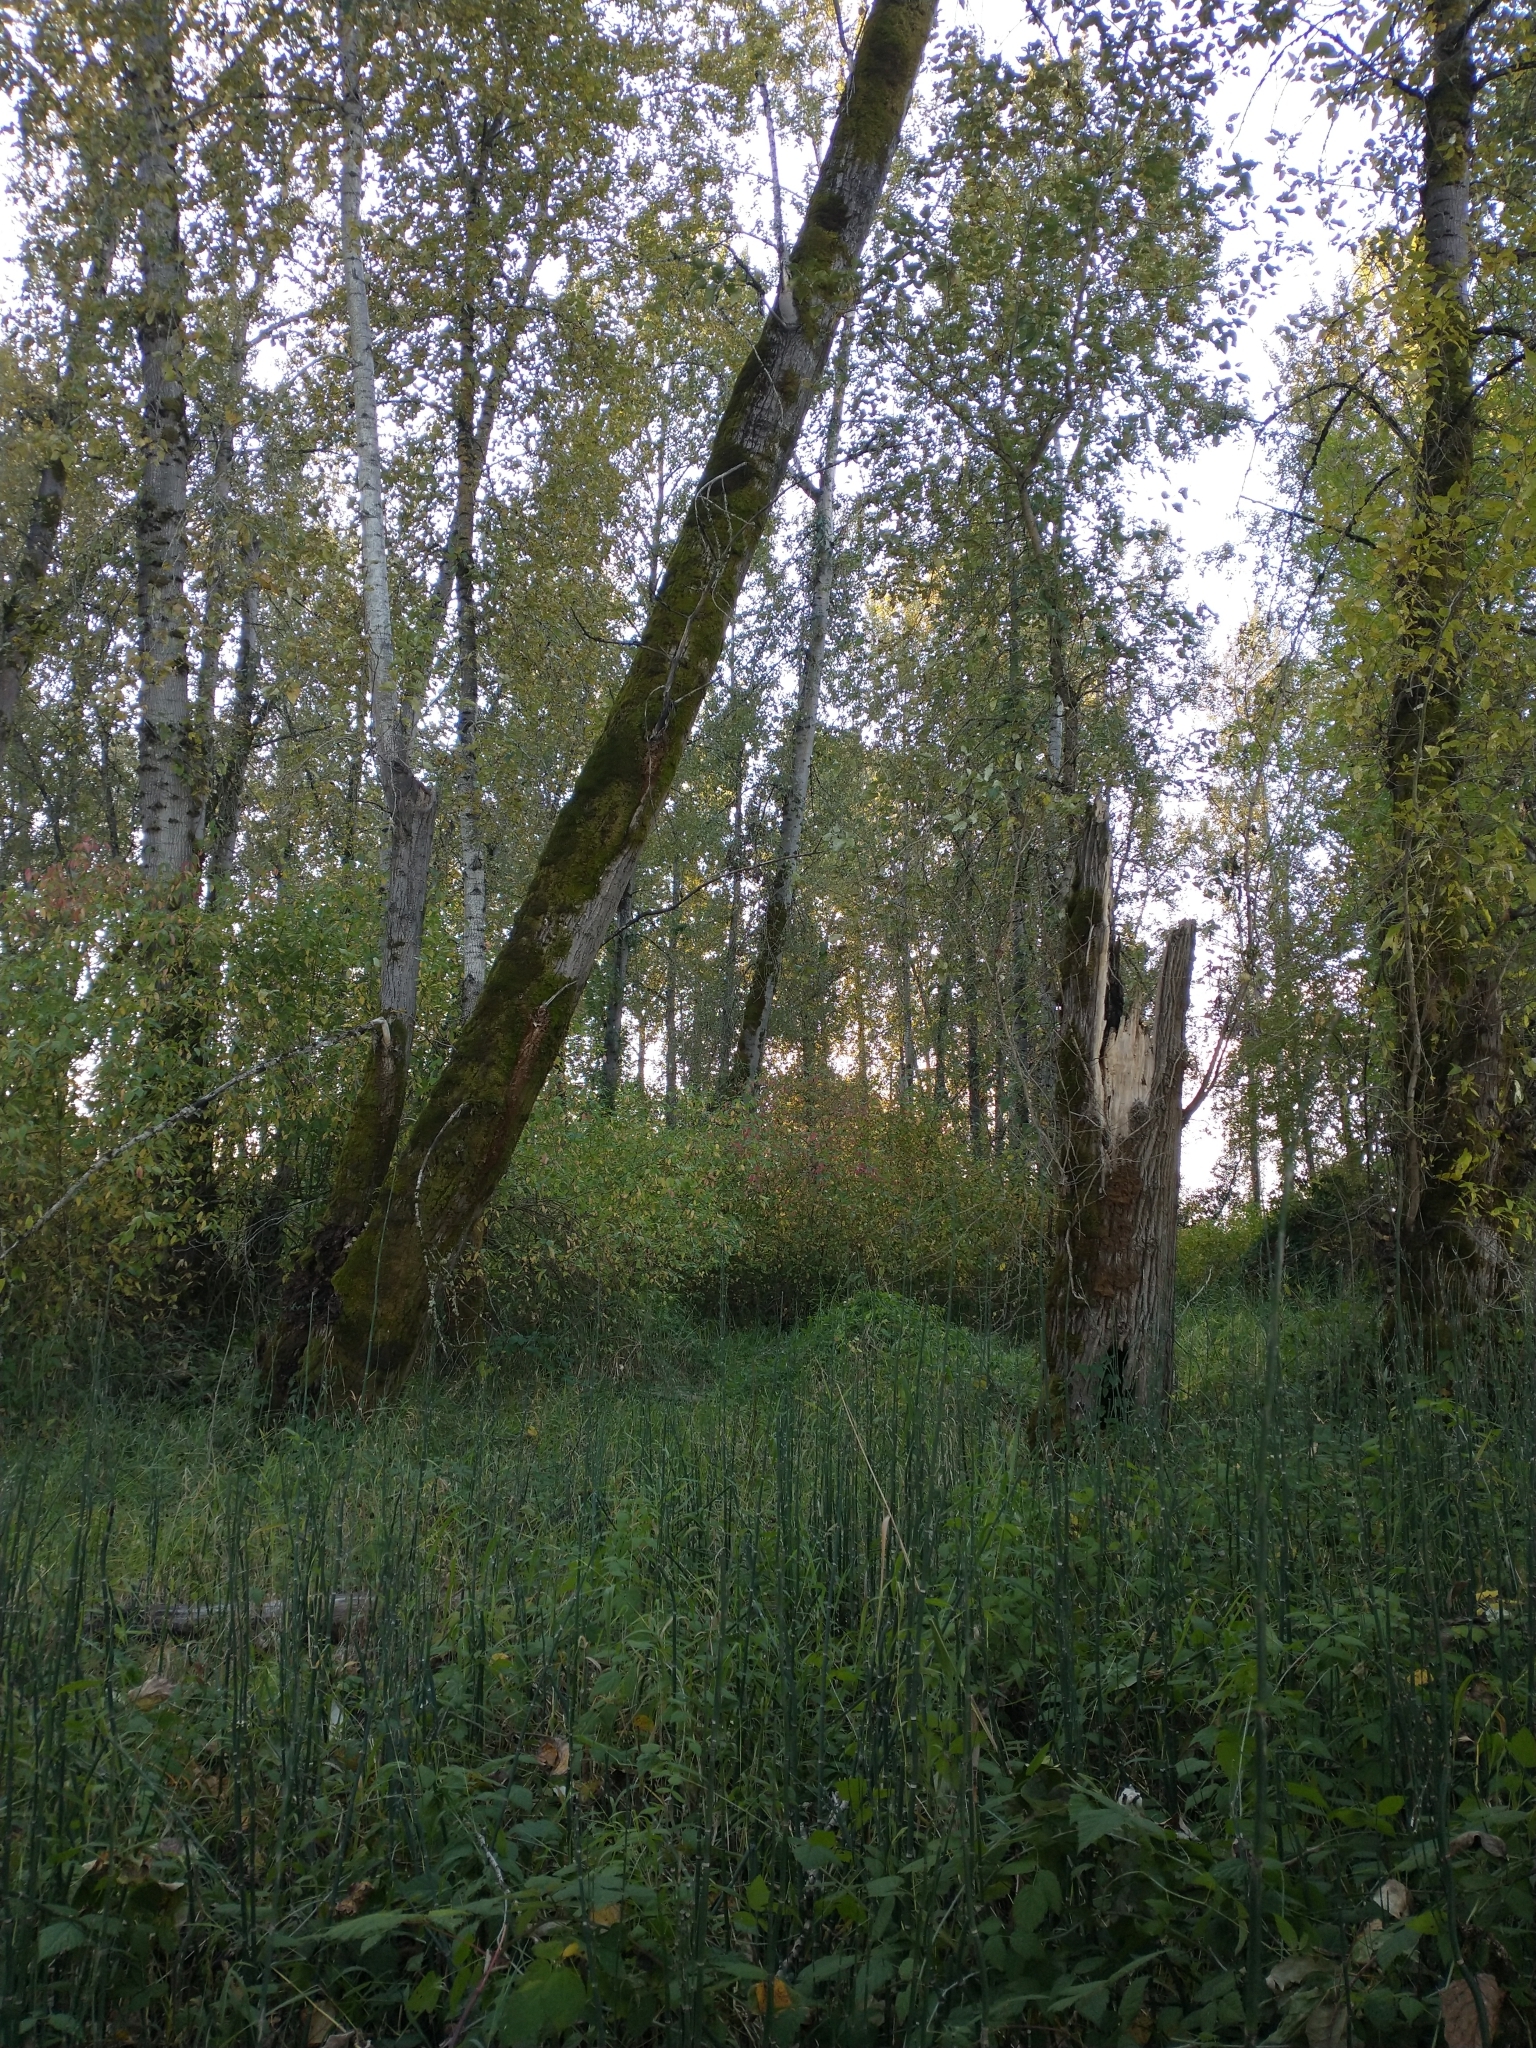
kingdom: Plantae
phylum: Tracheophyta
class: Polypodiopsida
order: Equisetales
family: Equisetaceae
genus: Equisetum
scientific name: Equisetum praealtum
